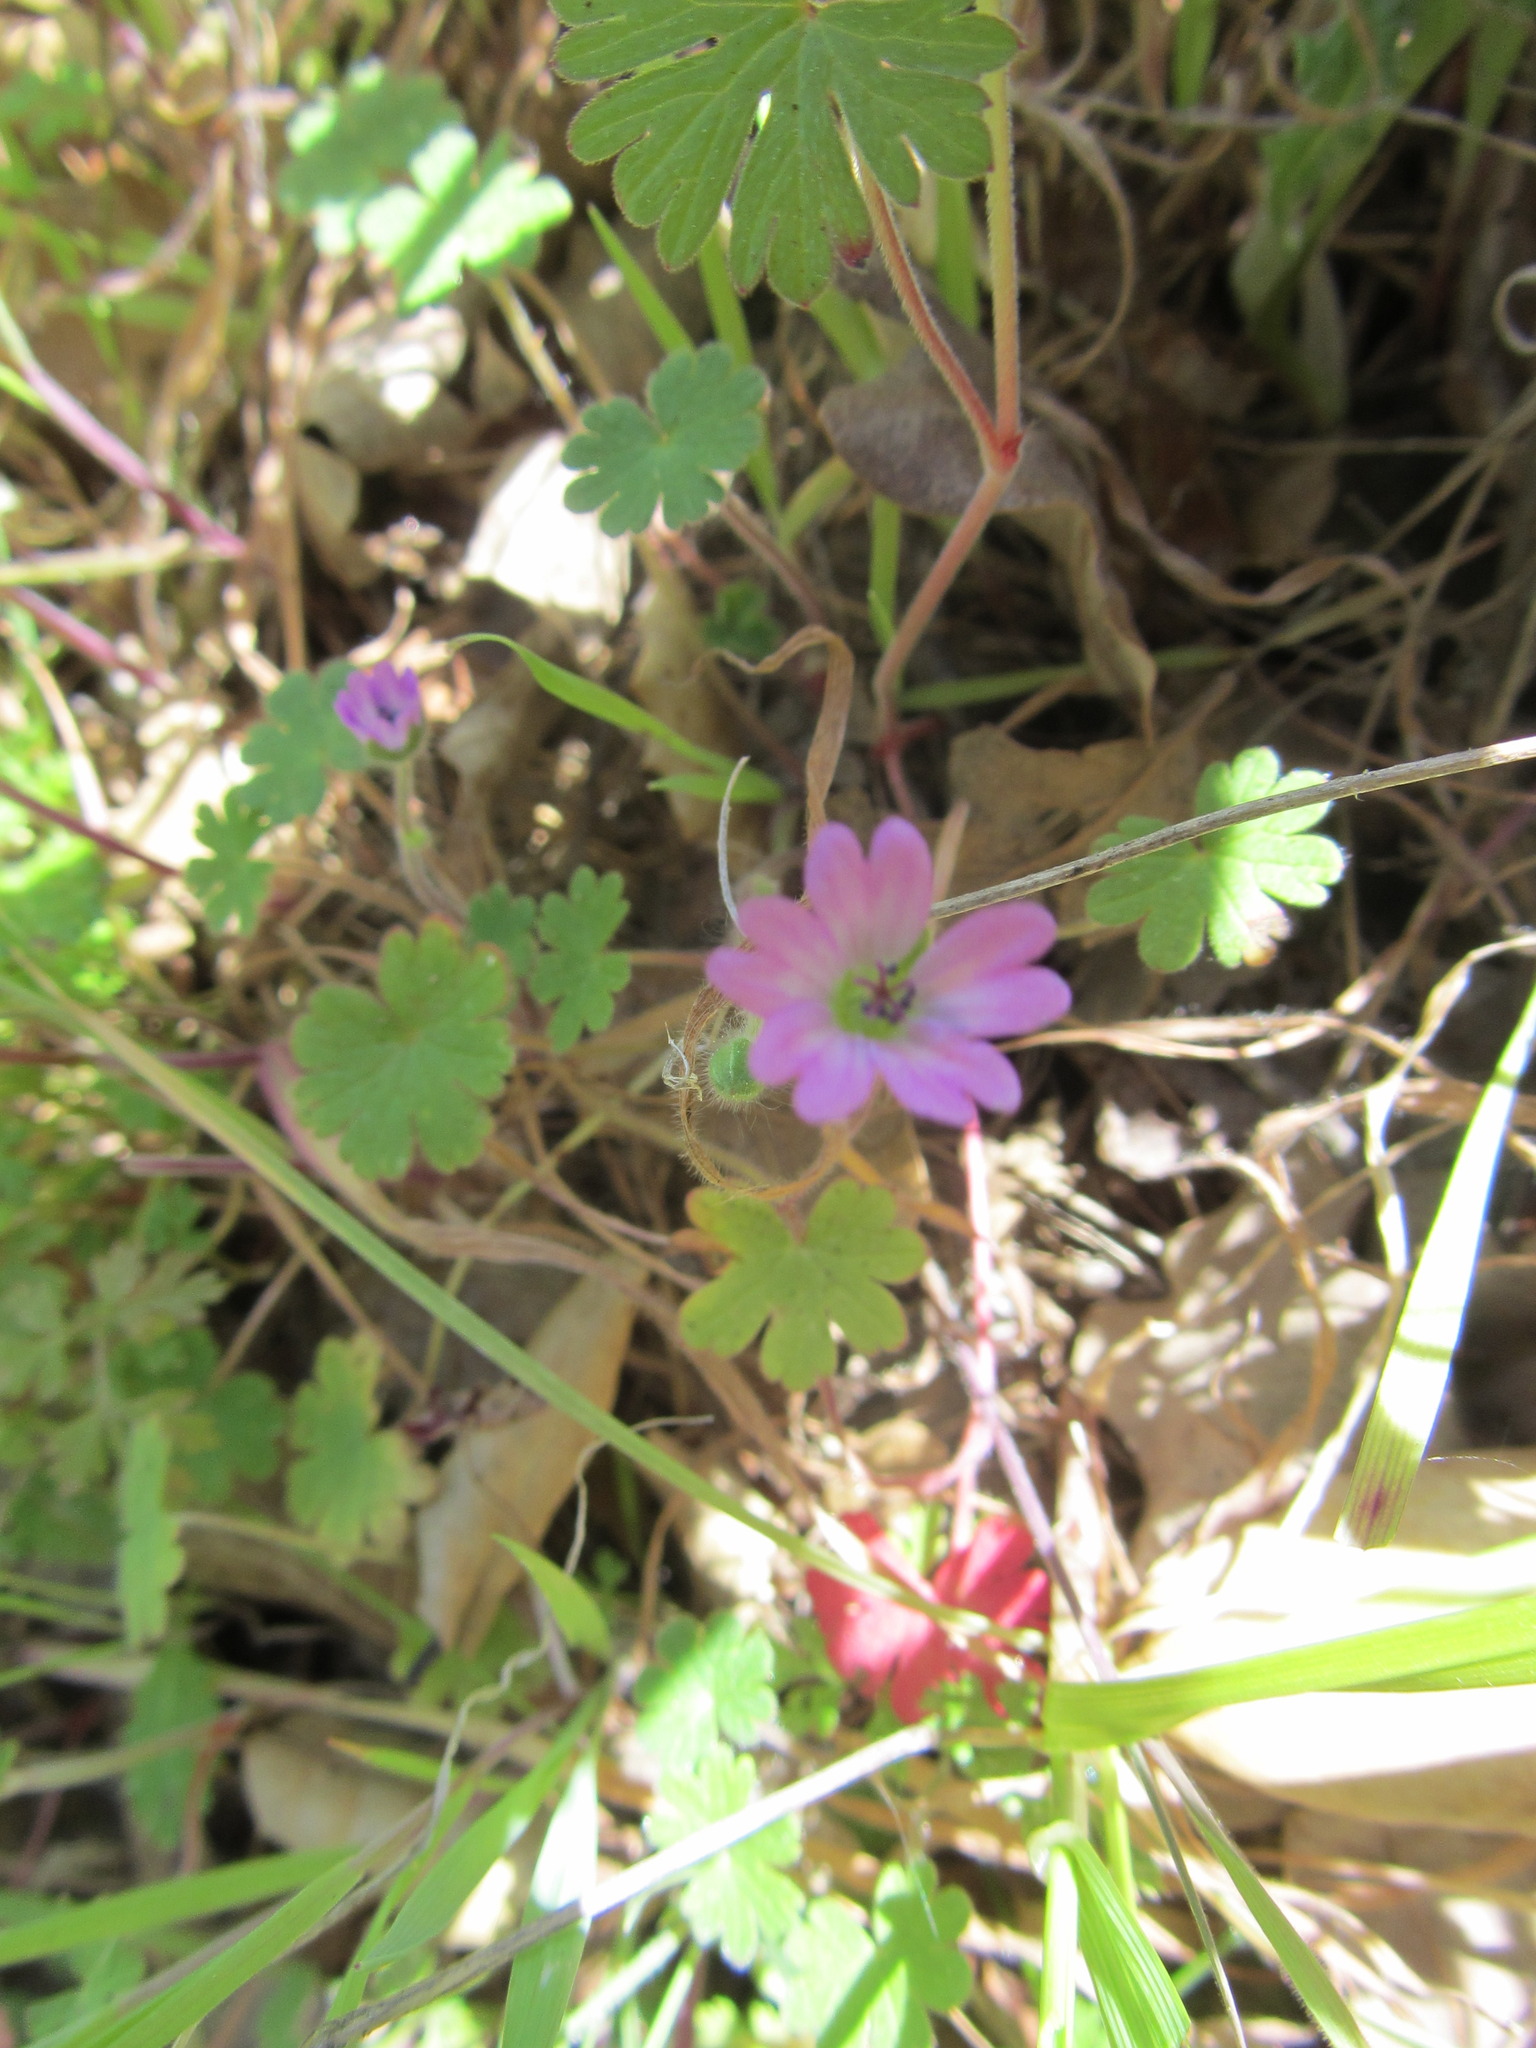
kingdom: Plantae
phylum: Tracheophyta
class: Magnoliopsida
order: Geraniales
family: Geraniaceae
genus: Geranium
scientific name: Geranium molle
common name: Dove's-foot crane's-bill
